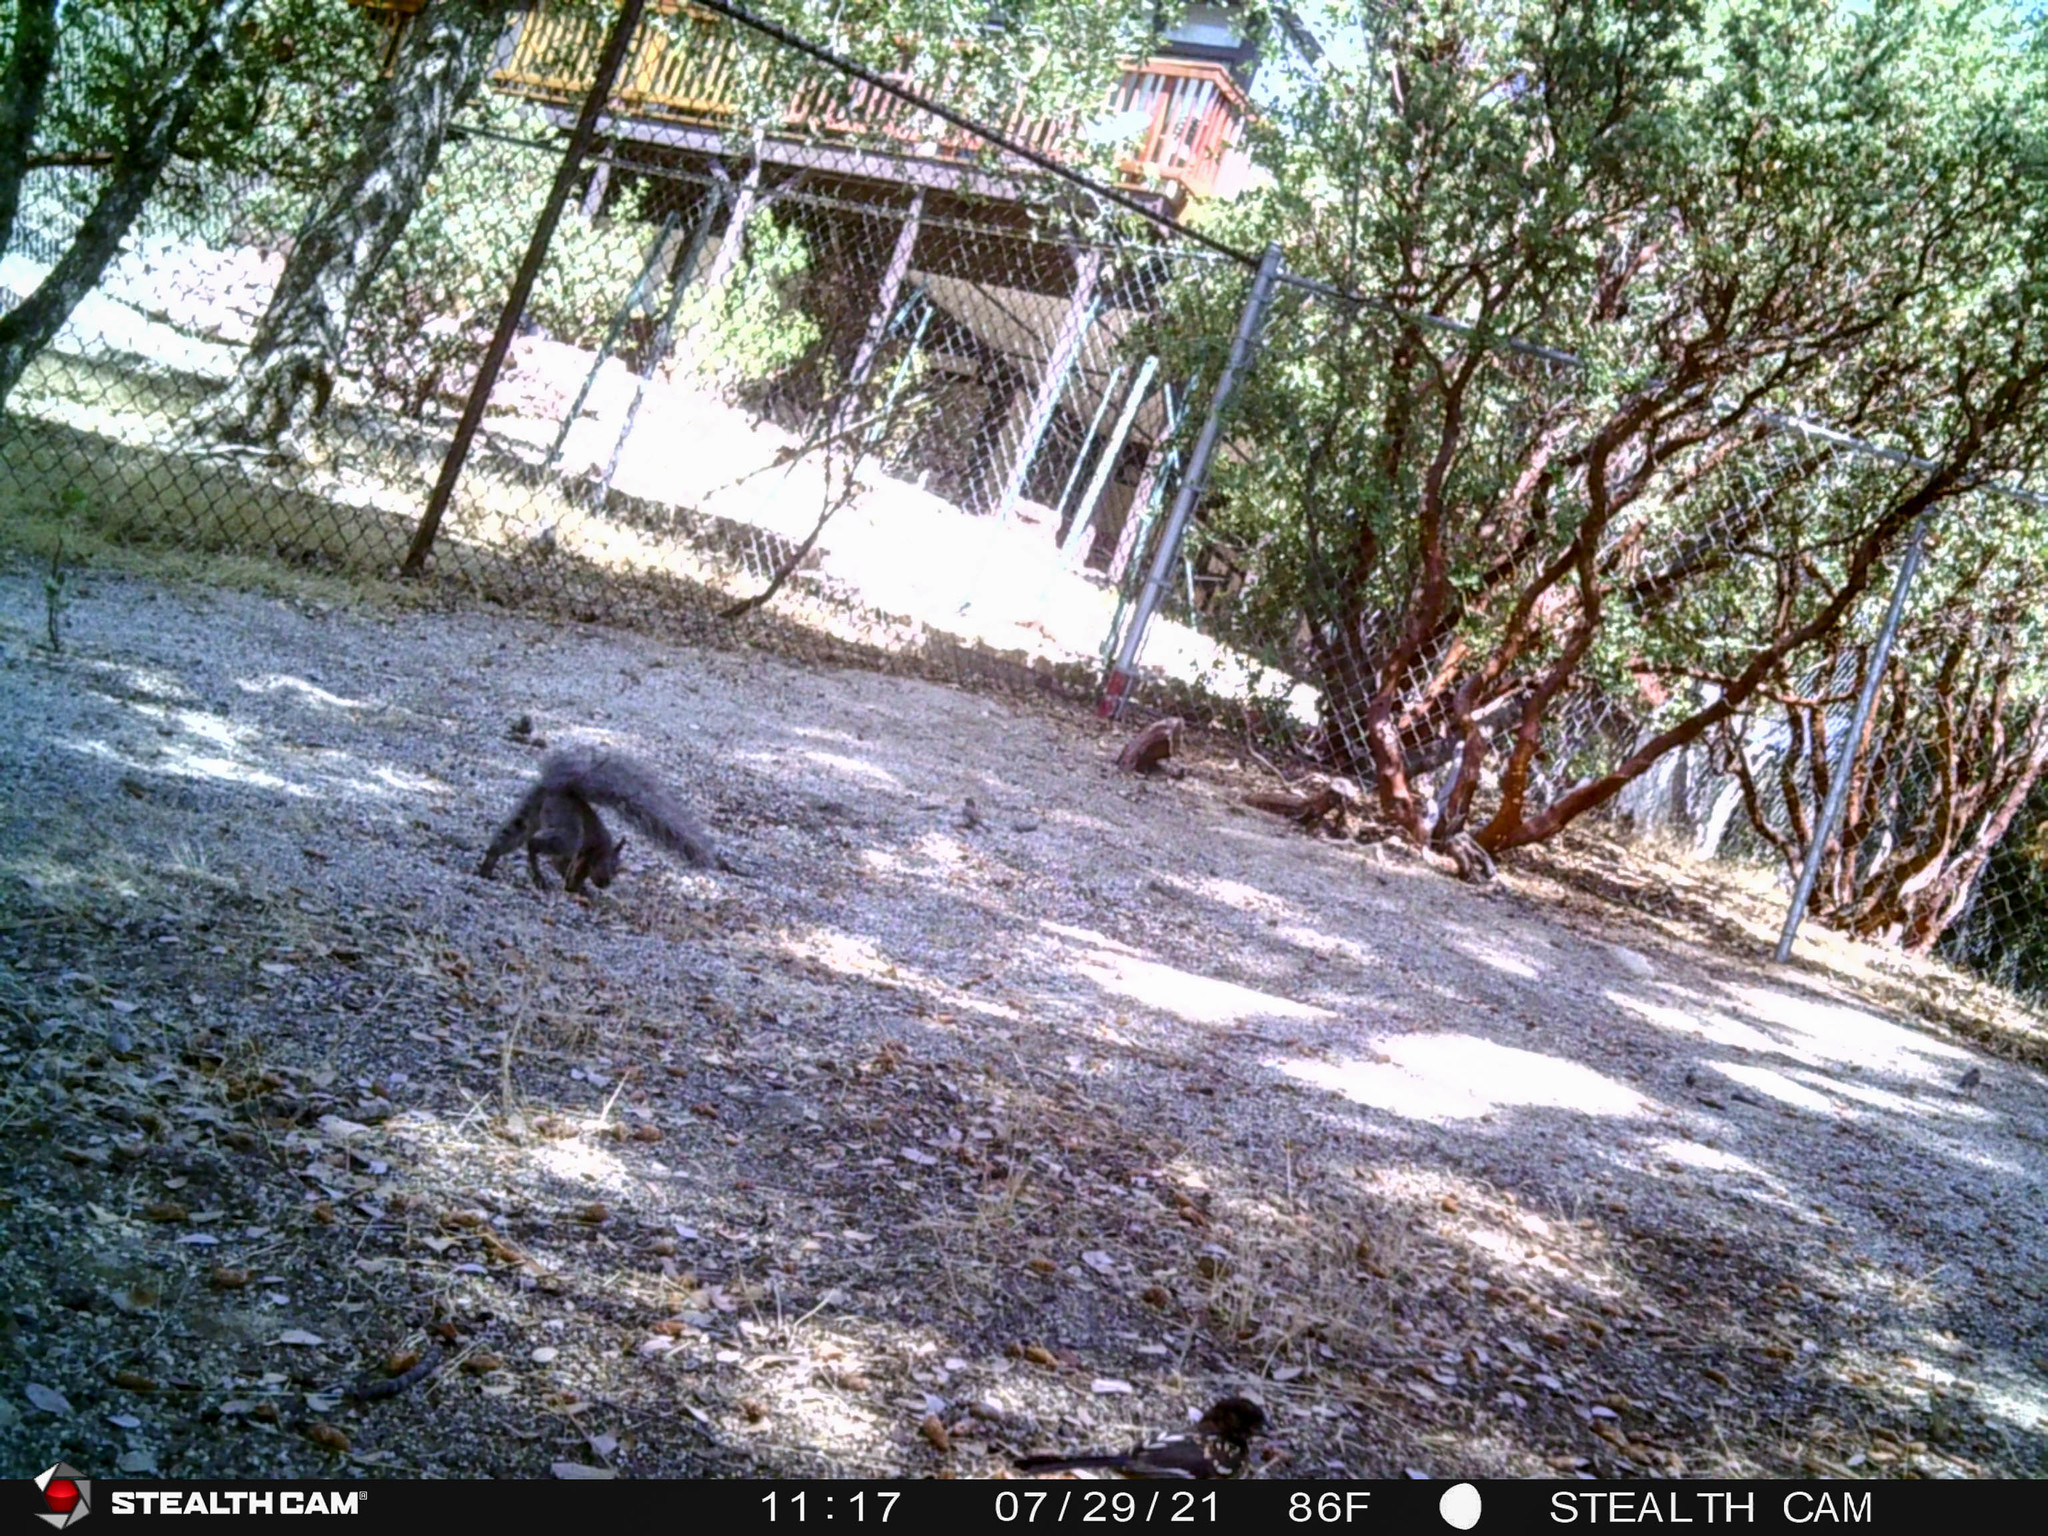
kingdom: Animalia
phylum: Chordata
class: Mammalia
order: Rodentia
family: Sciuridae
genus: Sciurus
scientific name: Sciurus griseus
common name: Western gray squirrel
